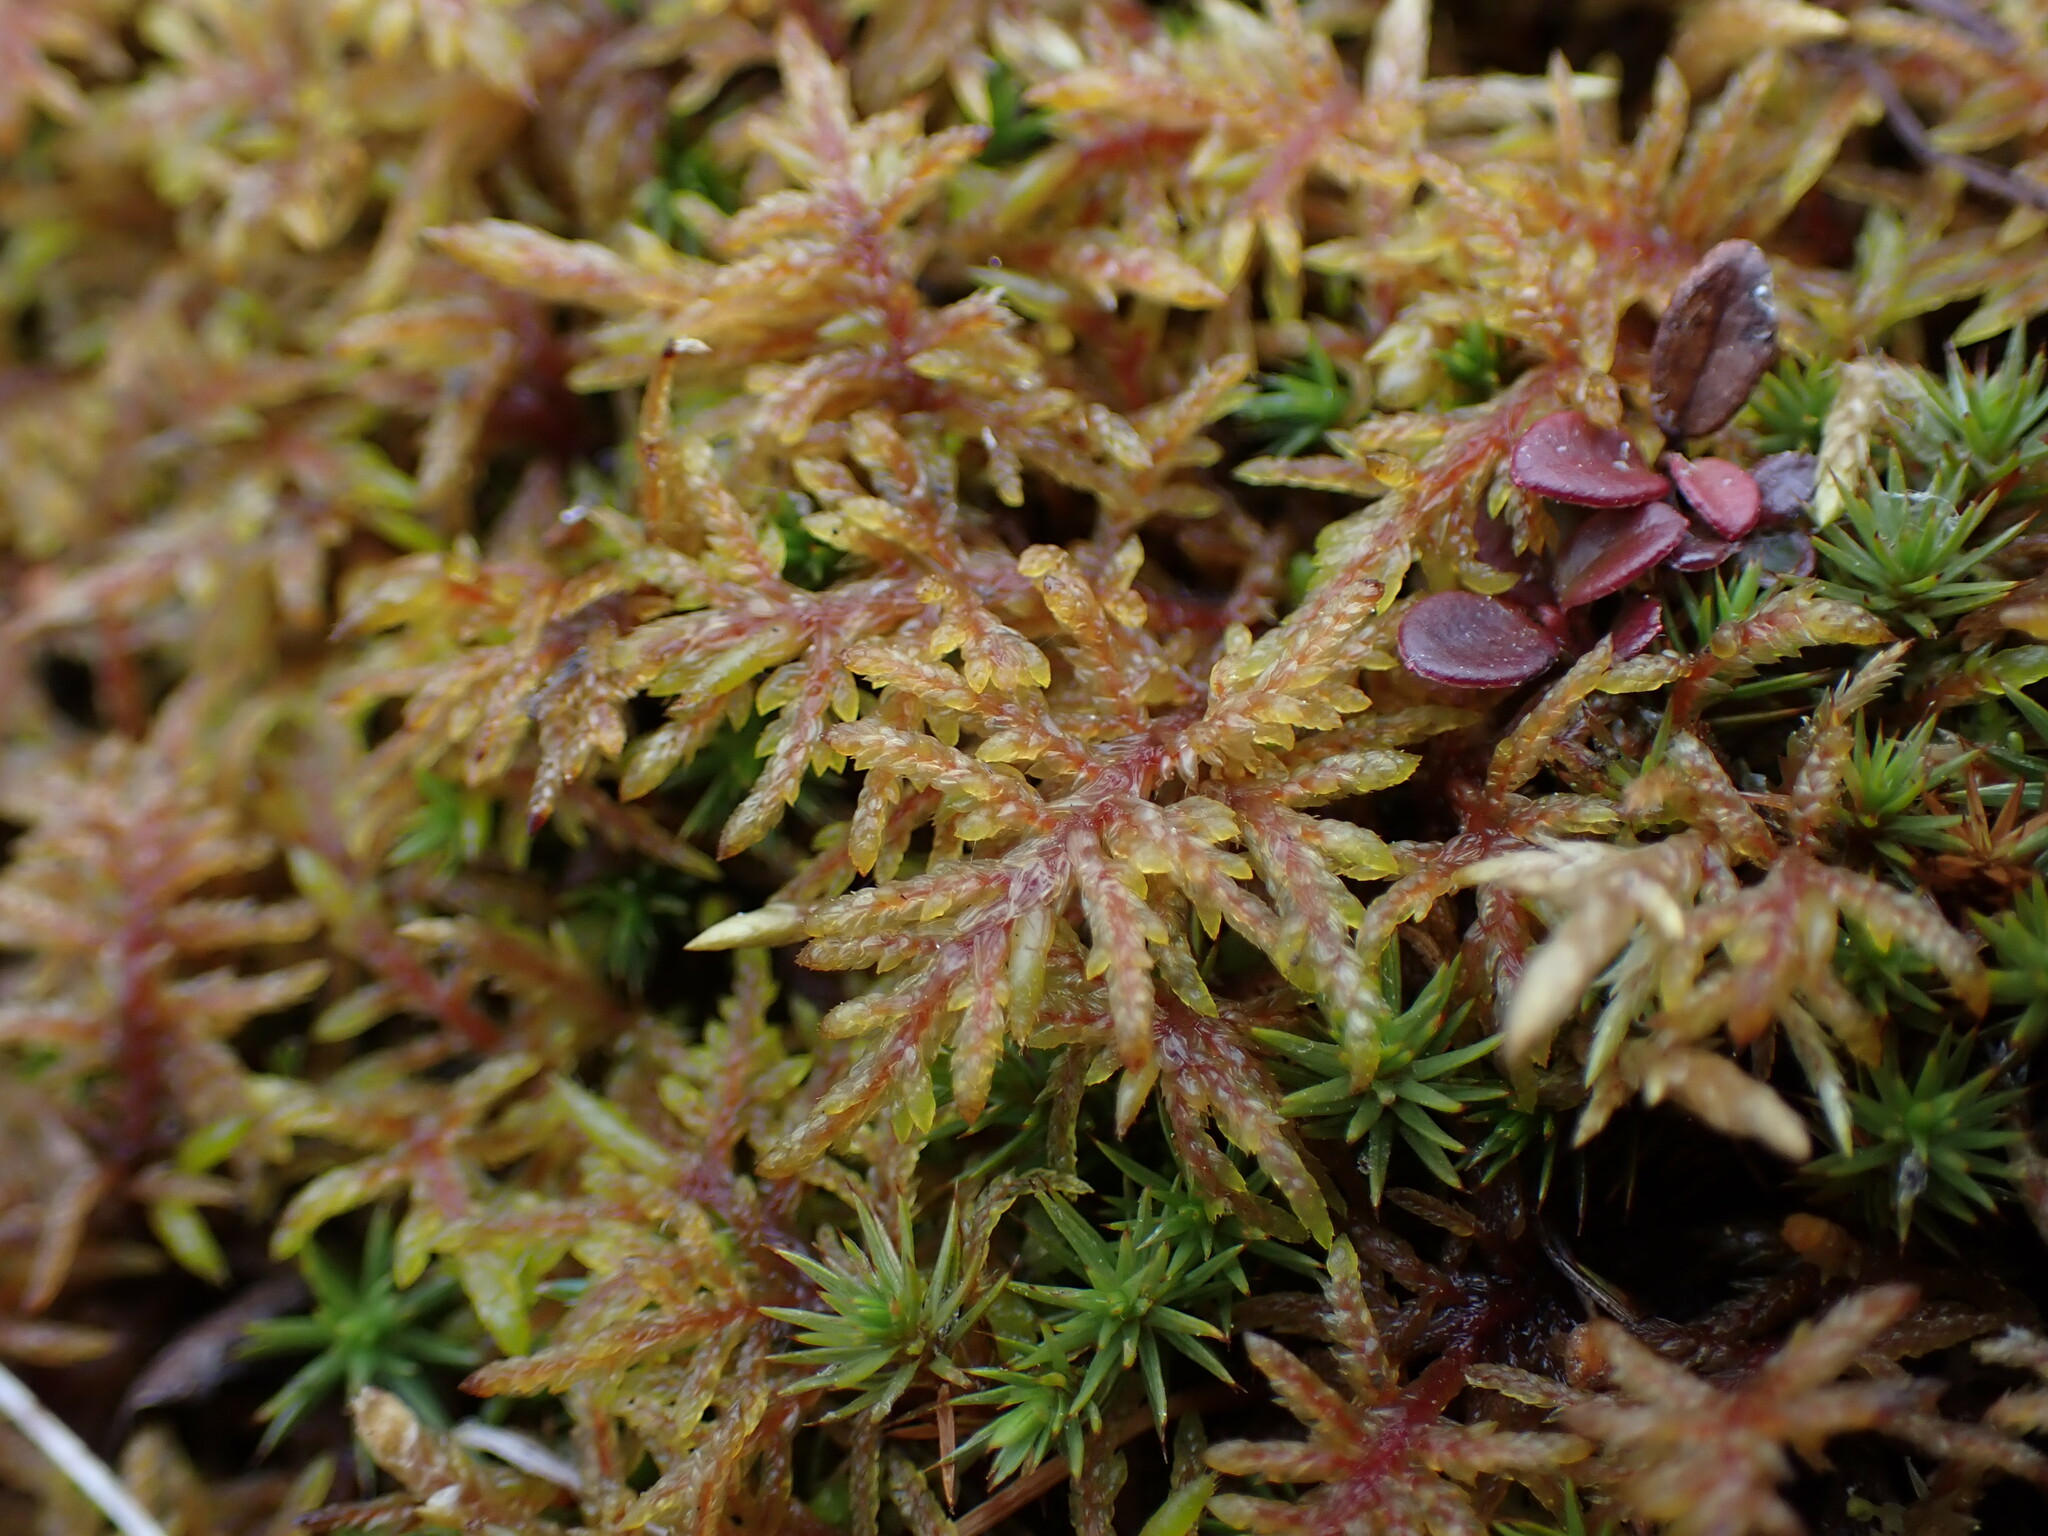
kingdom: Plantae
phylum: Bryophyta
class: Bryopsida
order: Hypnales
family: Hylocomiaceae
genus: Hylocomium
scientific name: Hylocomium splendens
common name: Stairstep moss
